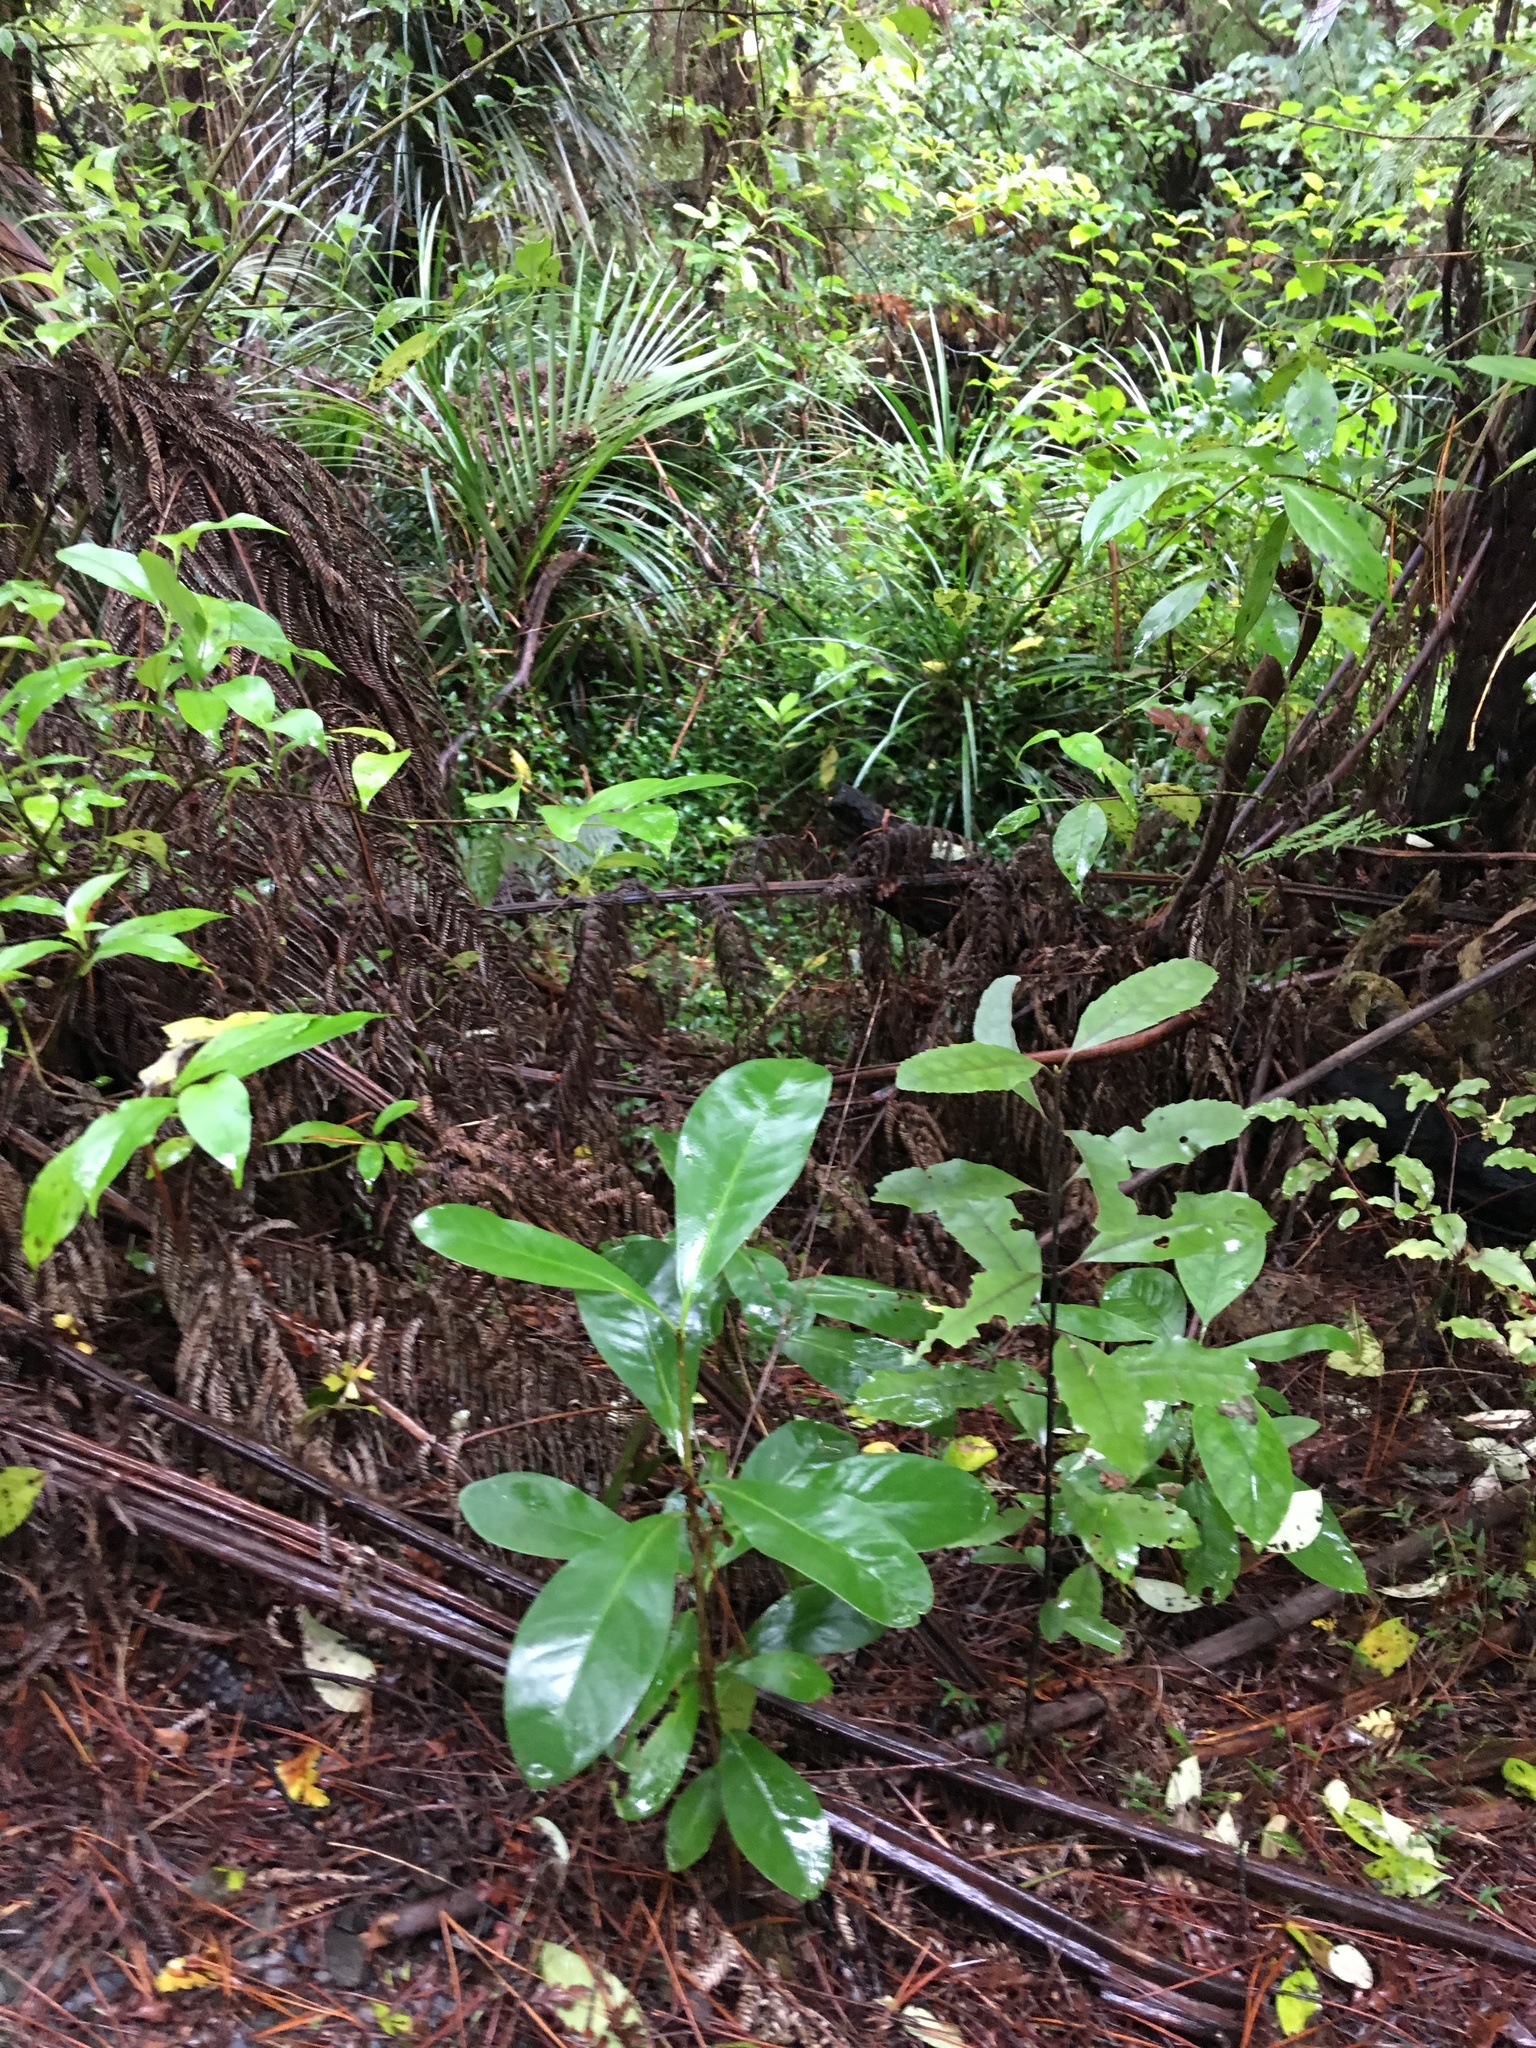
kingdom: Plantae
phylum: Tracheophyta
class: Magnoliopsida
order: Cucurbitales
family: Corynocarpaceae
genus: Corynocarpus
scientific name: Corynocarpus laevigatus
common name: New zealand laurel
